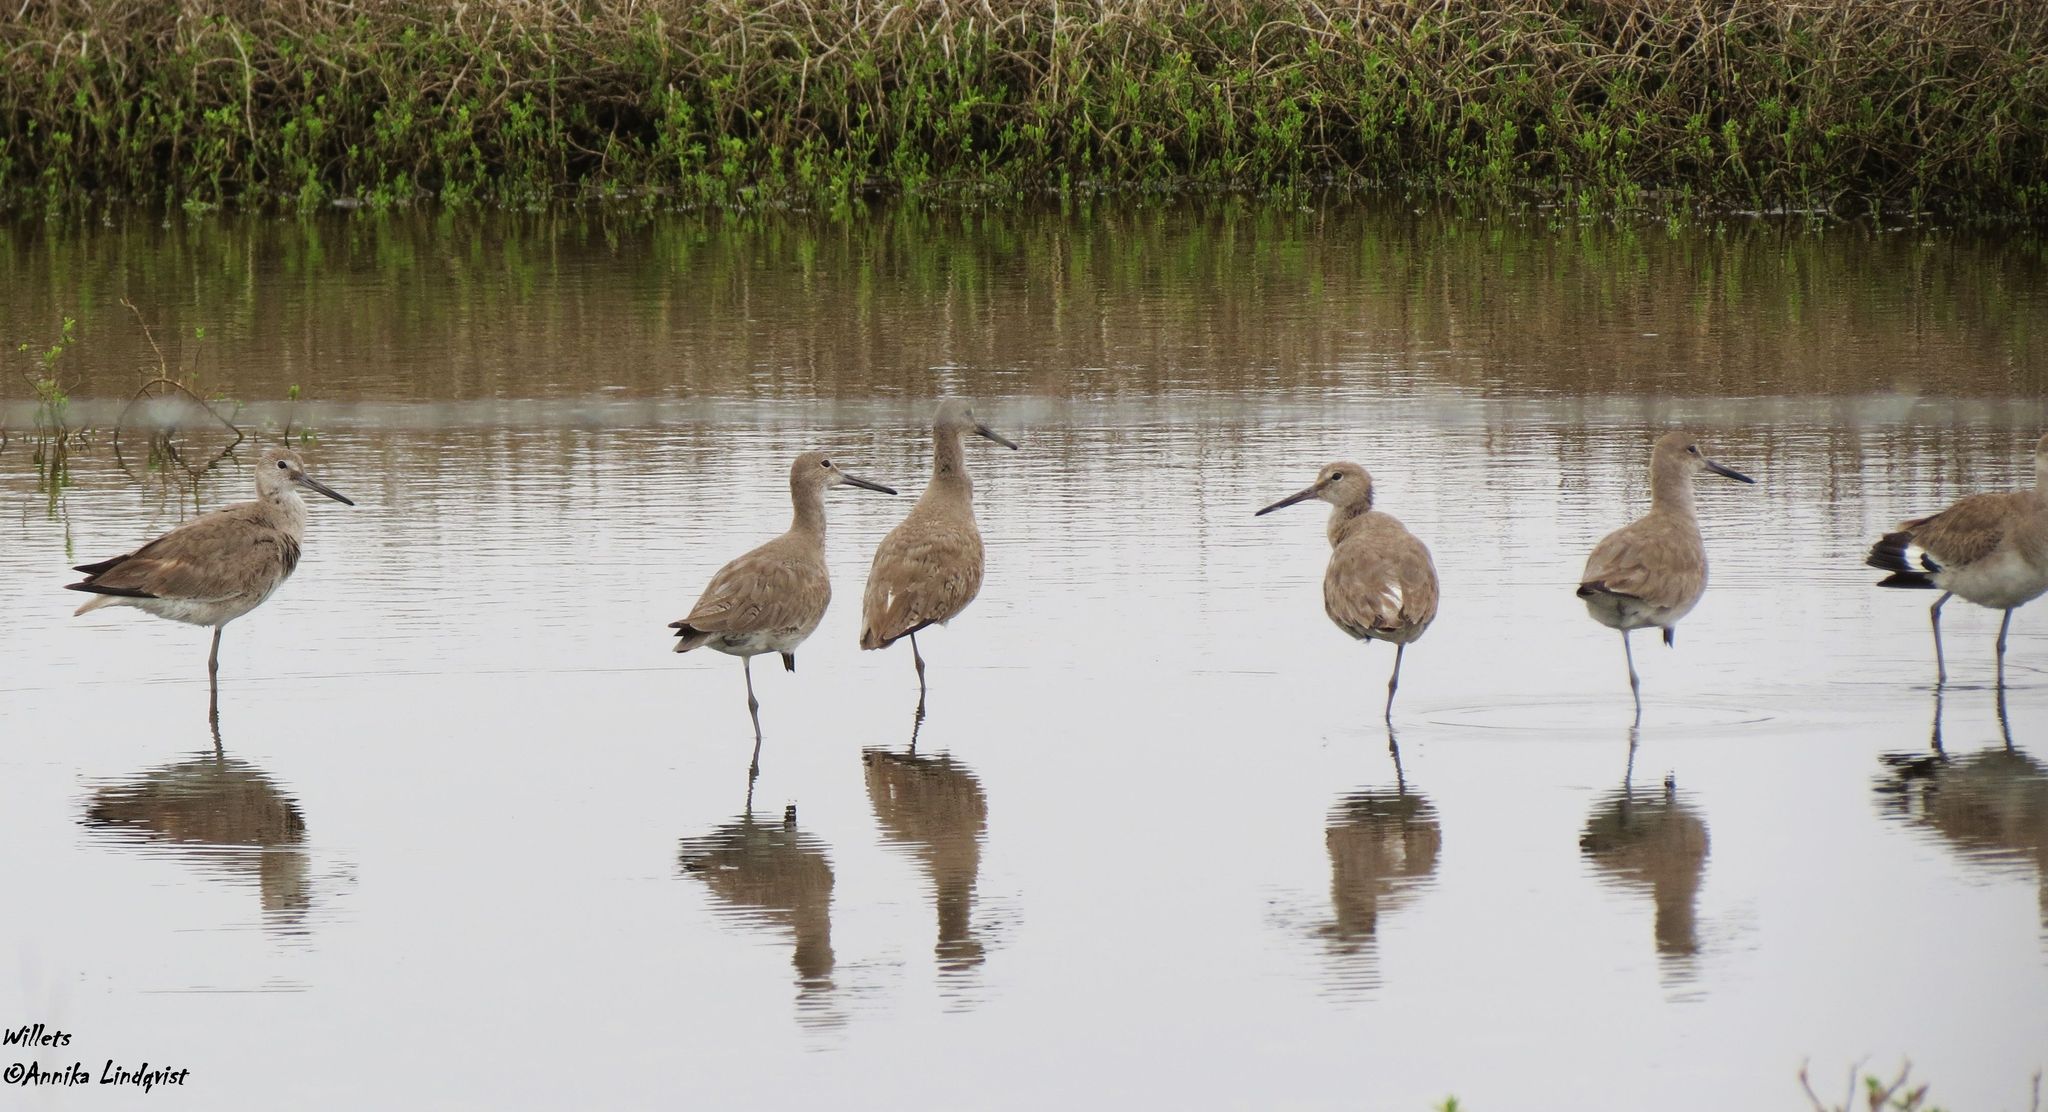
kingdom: Animalia
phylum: Chordata
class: Aves
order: Charadriiformes
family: Scolopacidae
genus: Tringa
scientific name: Tringa semipalmata
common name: Willet
